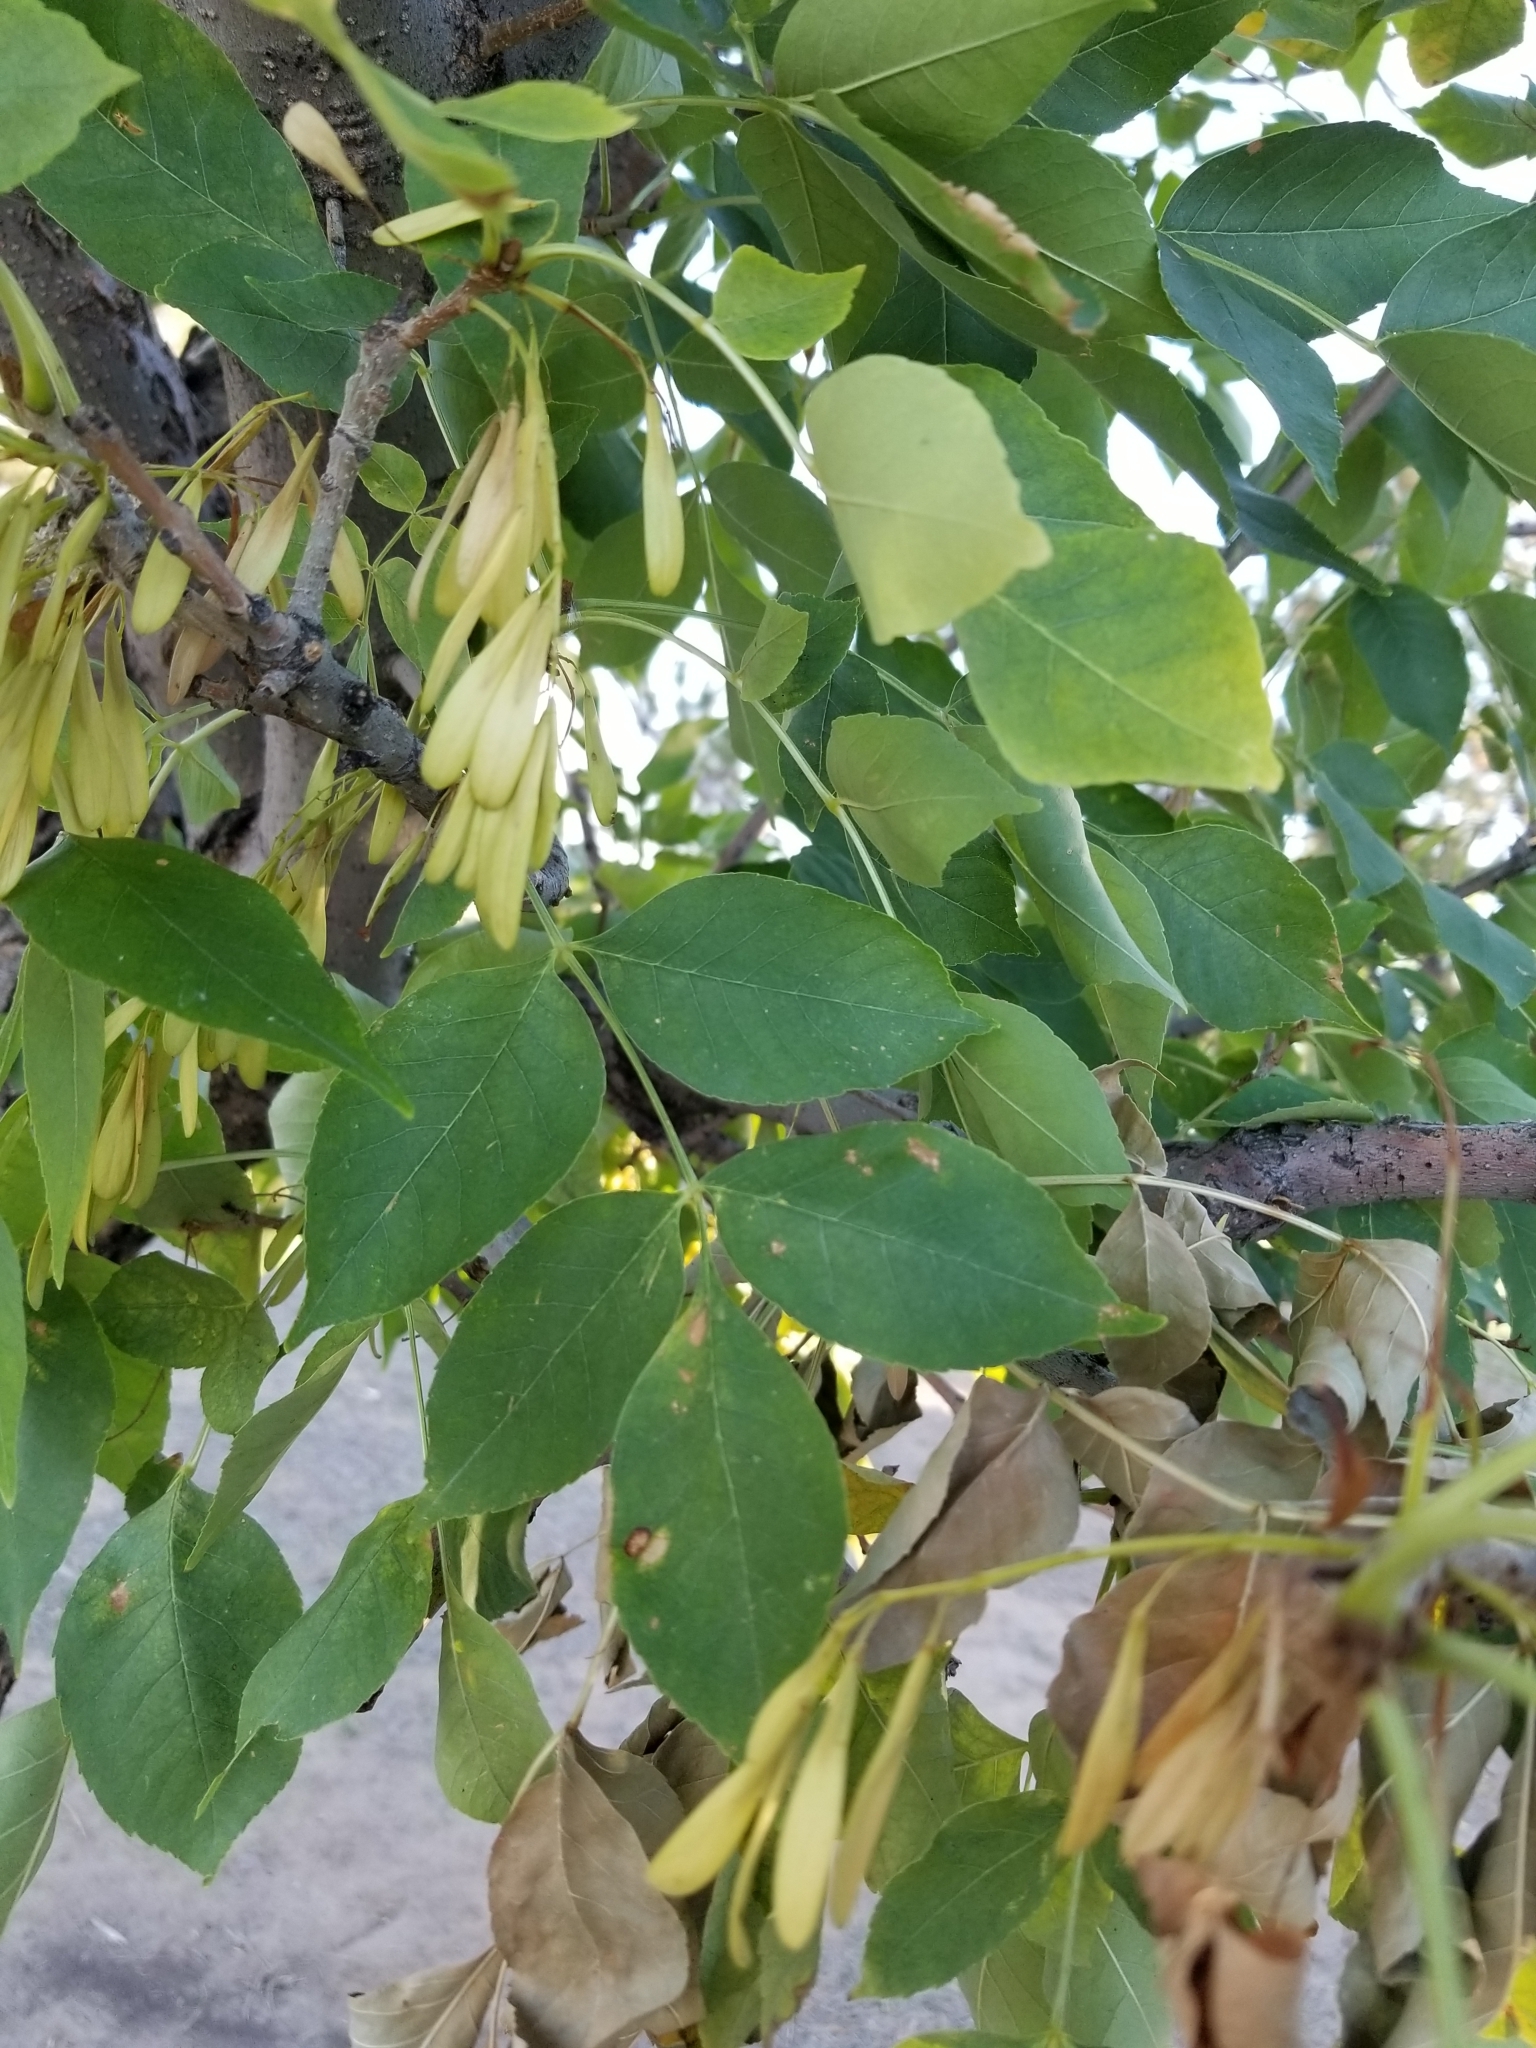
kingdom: Plantae
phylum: Tracheophyta
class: Magnoliopsida
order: Sapindales
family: Sapindaceae
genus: Acer
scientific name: Acer negundo
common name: Ashleaf maple
